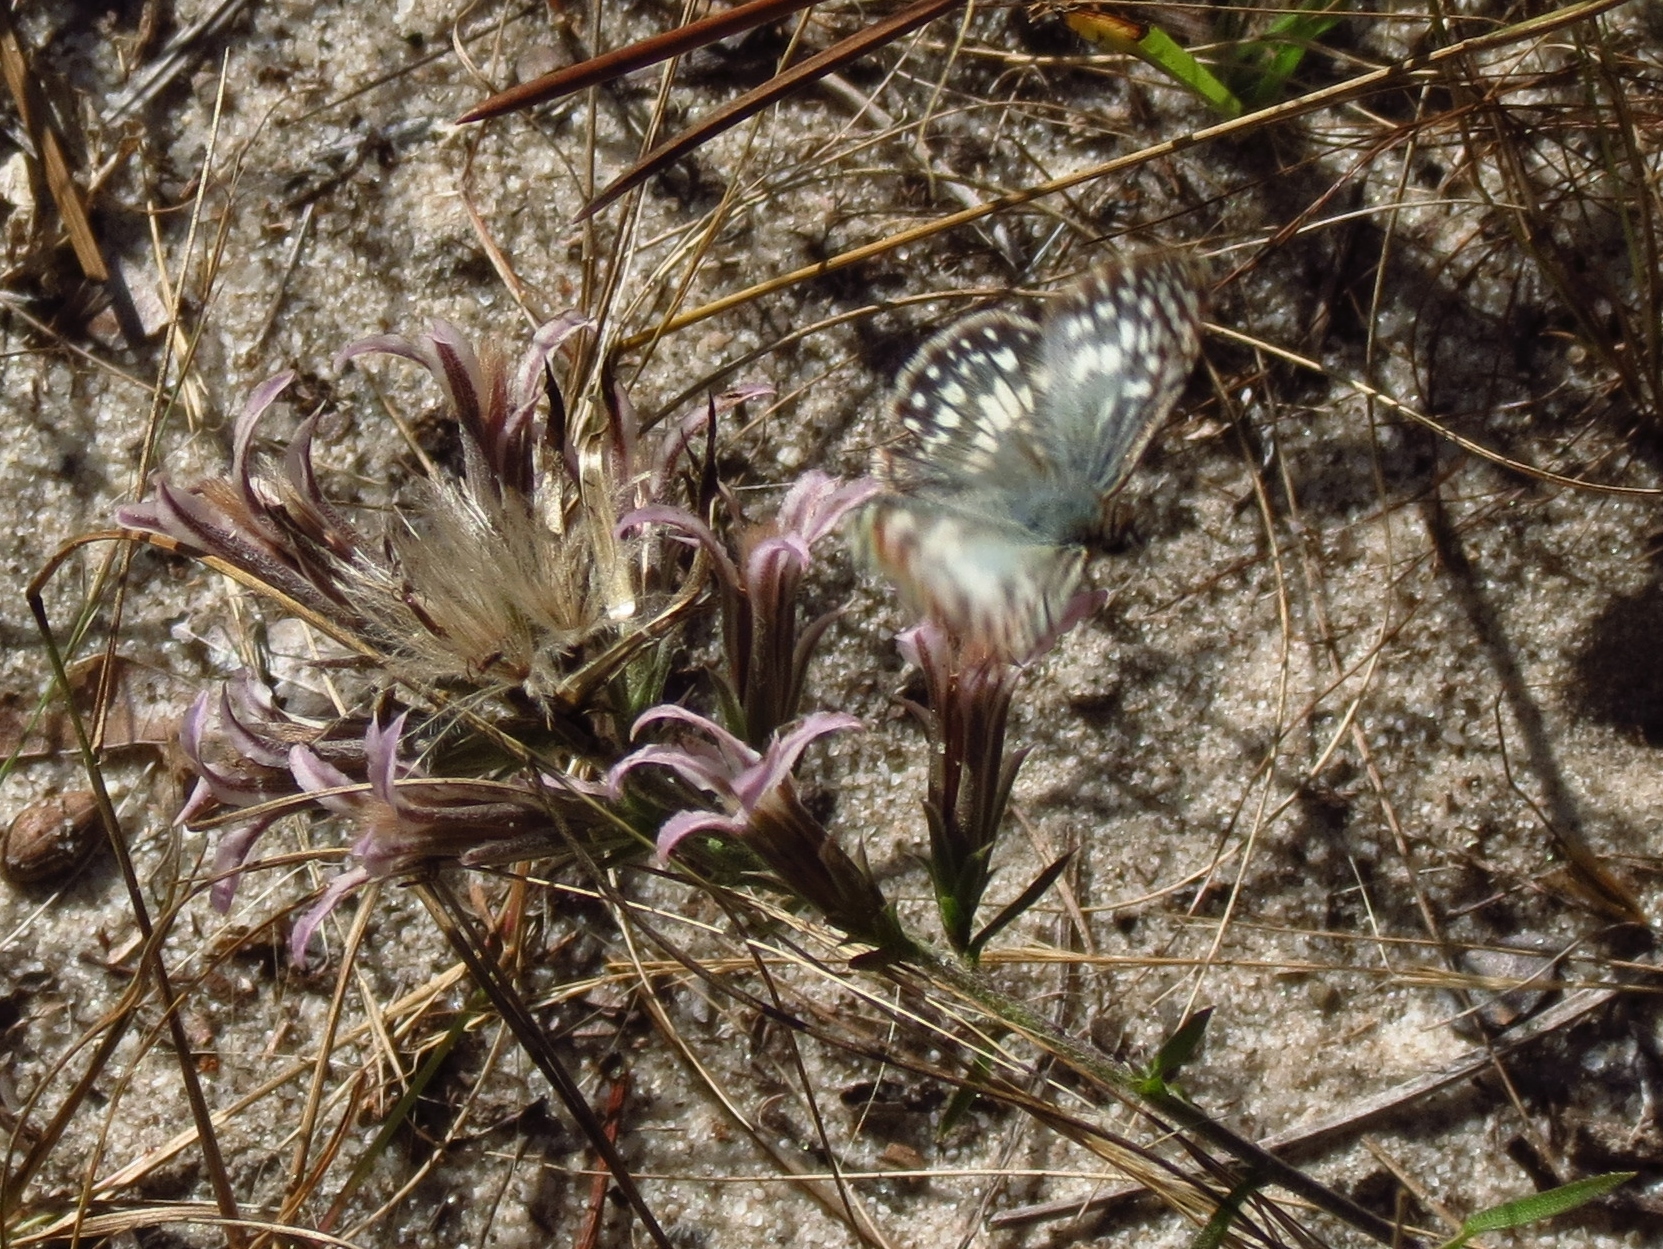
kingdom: Animalia
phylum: Arthropoda
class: Insecta
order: Lepidoptera
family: Hesperiidae
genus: Pyrgus
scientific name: Pyrgus oileus
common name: Tropical checkered-skipper
